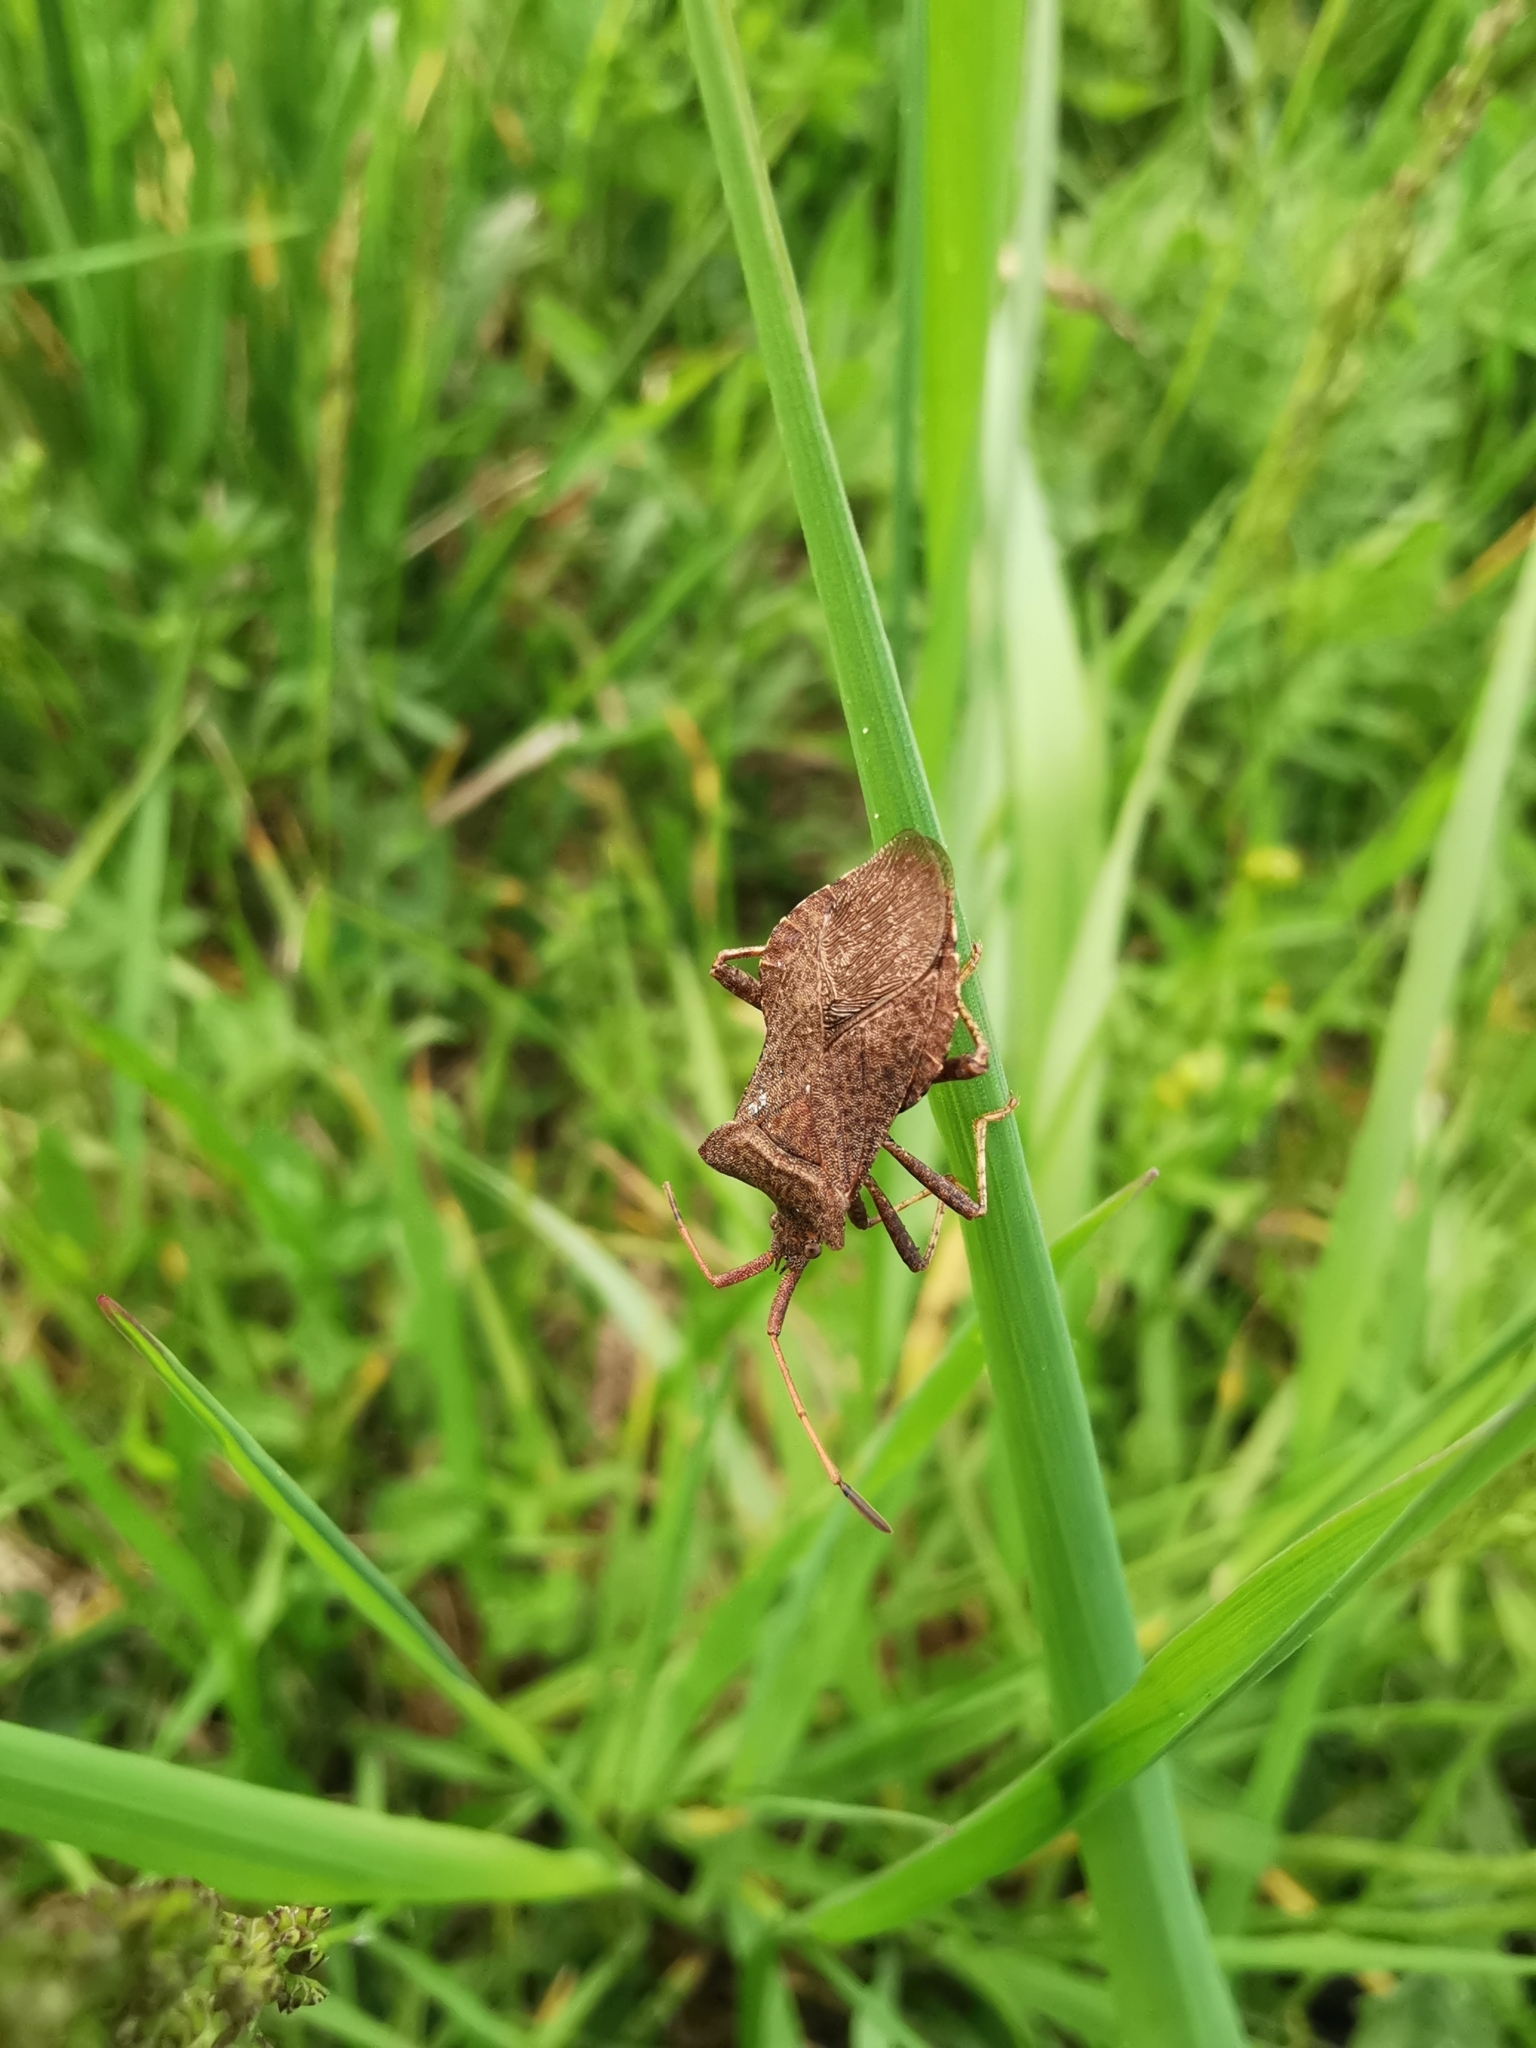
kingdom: Animalia
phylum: Arthropoda
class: Insecta
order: Hemiptera
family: Coreidae
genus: Coreus
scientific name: Coreus marginatus
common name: Dock bug
